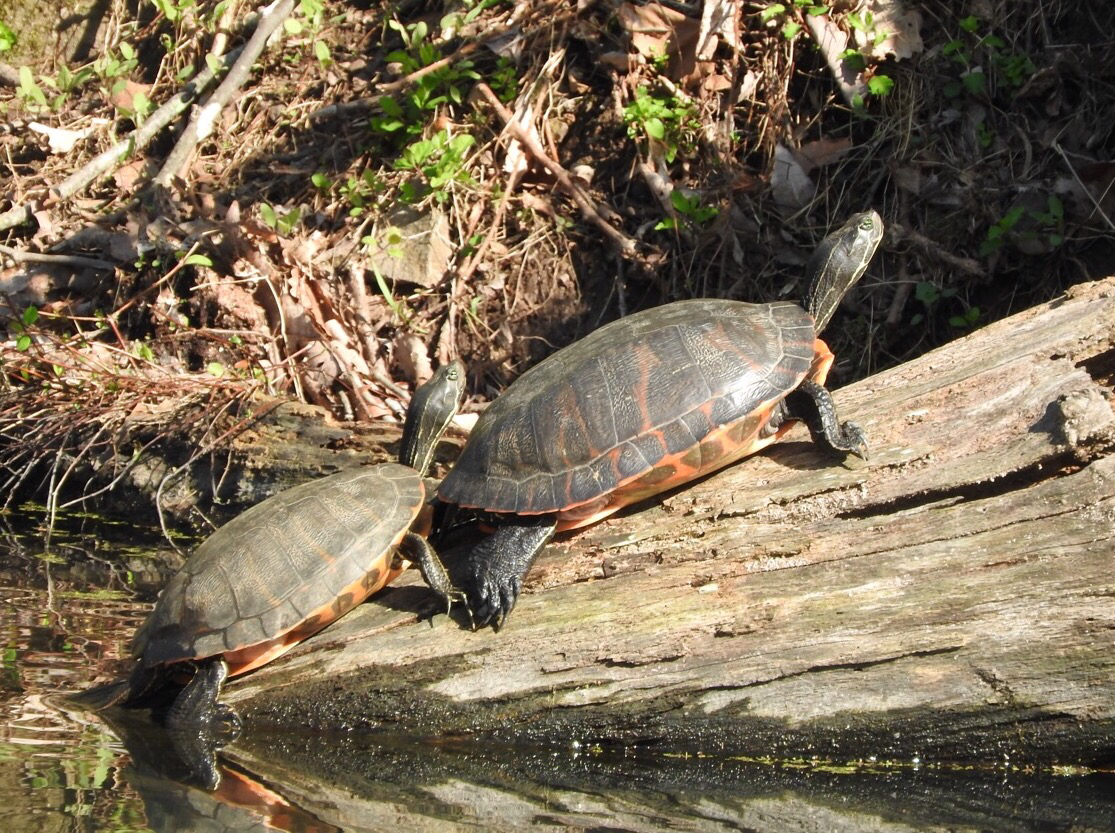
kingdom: Animalia
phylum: Chordata
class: Testudines
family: Emydidae
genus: Pseudemys
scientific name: Pseudemys rubriventris
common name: American red-bellied turtle
